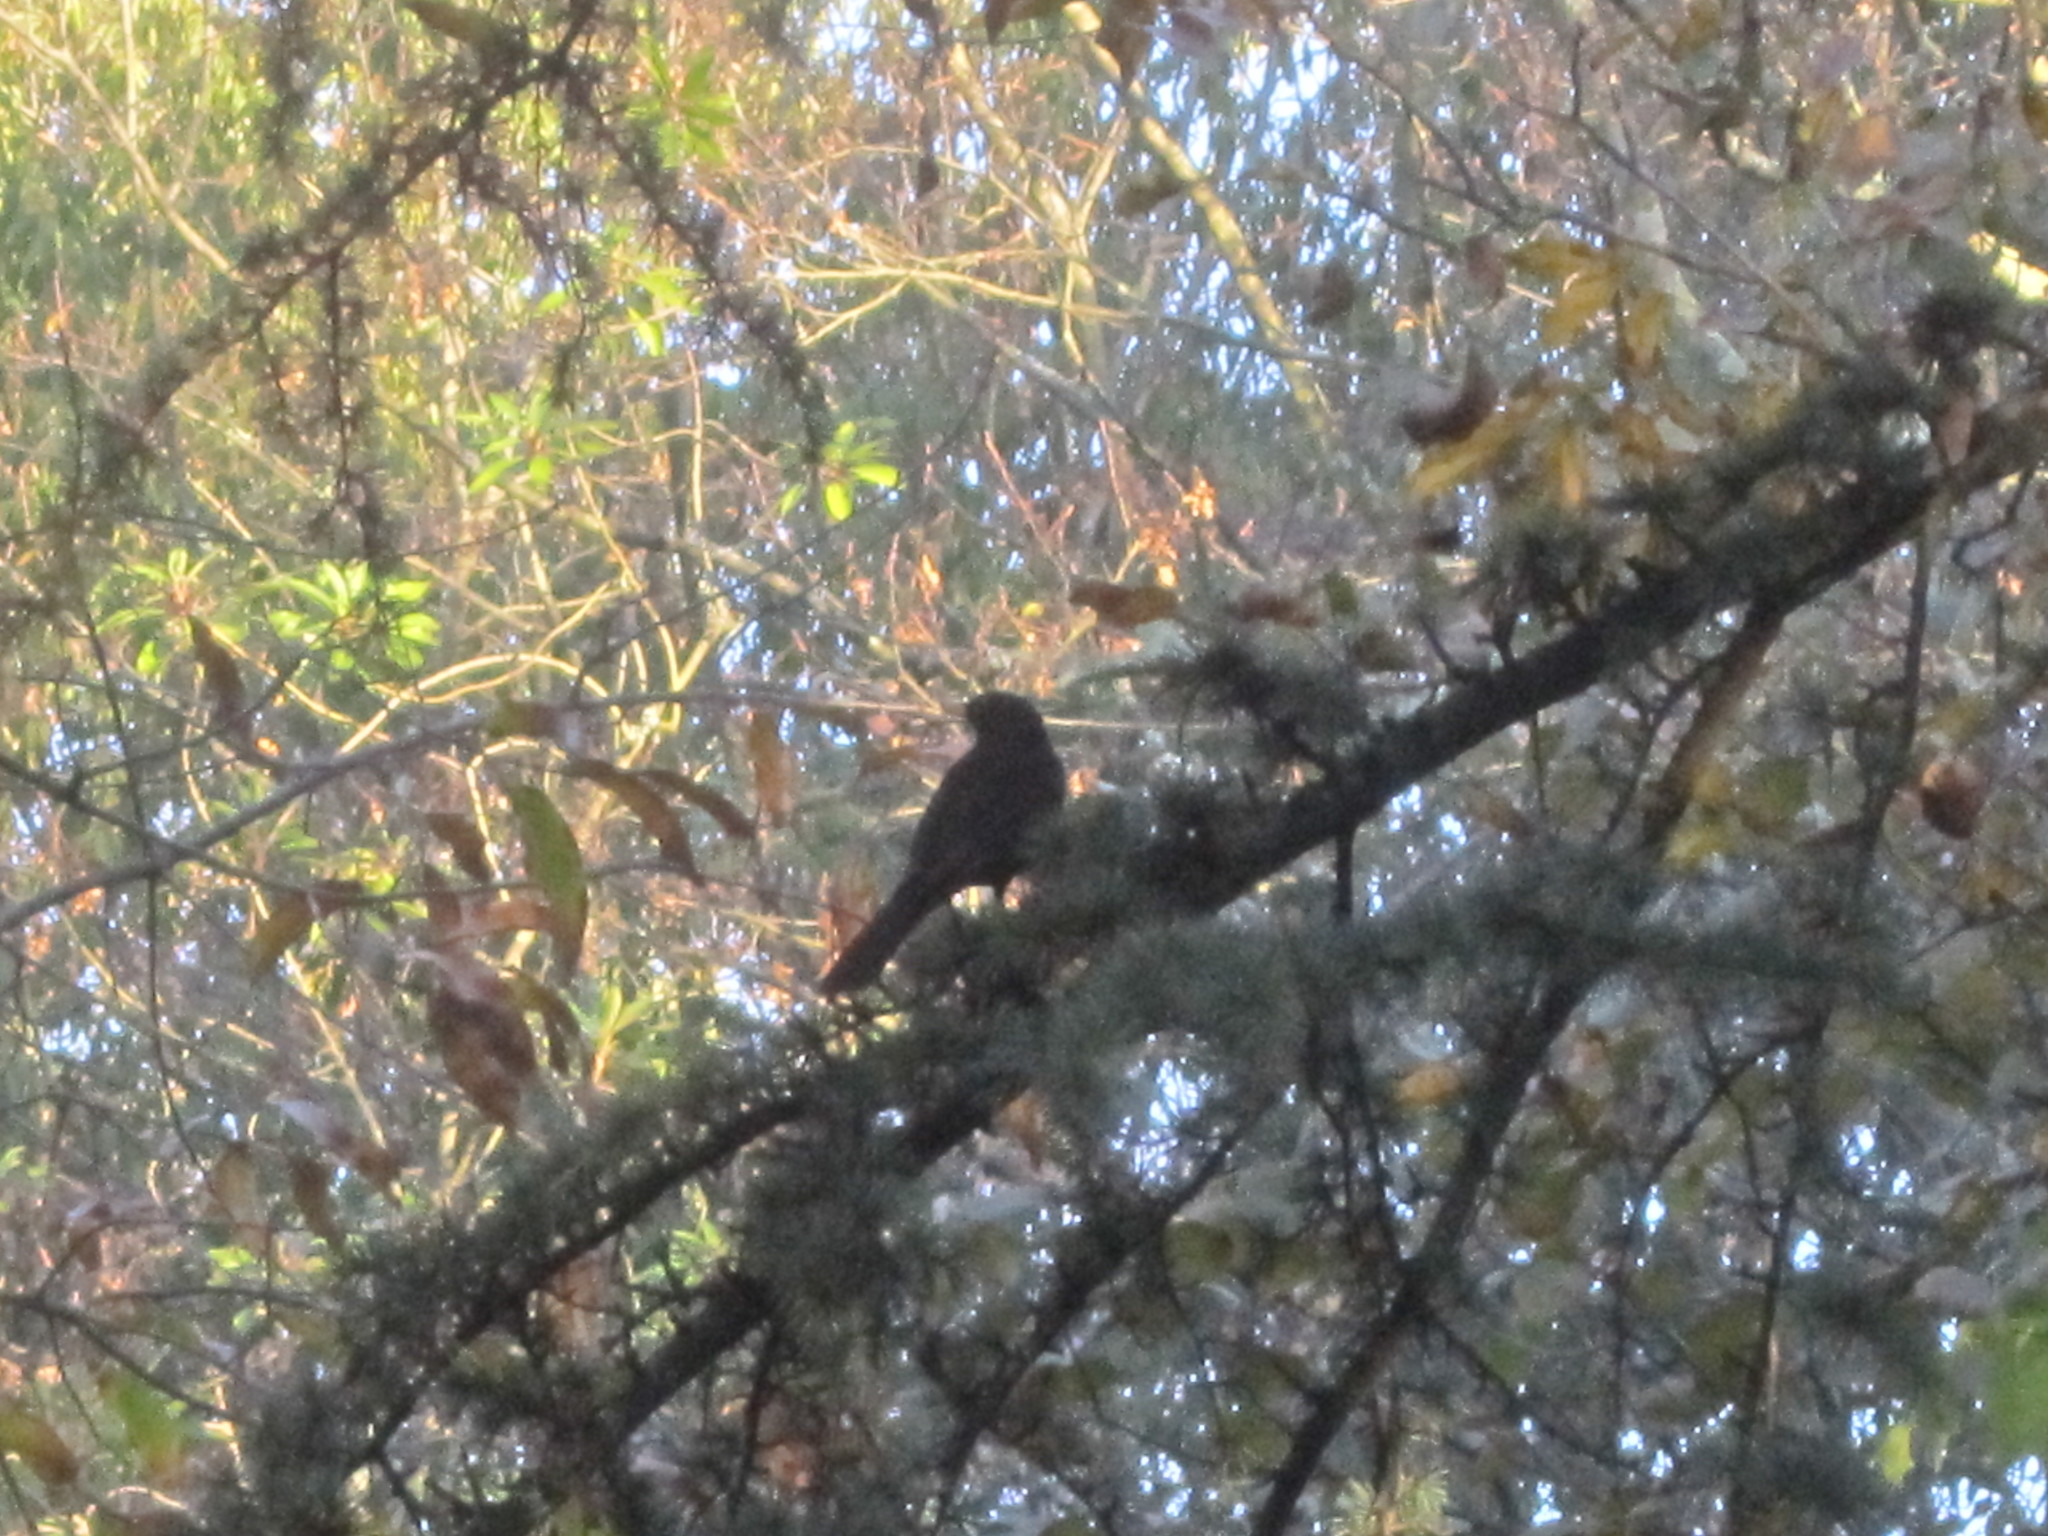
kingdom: Animalia
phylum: Chordata
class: Aves
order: Passeriformes
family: Turdidae
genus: Turdus
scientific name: Turdus merula
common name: Common blackbird
